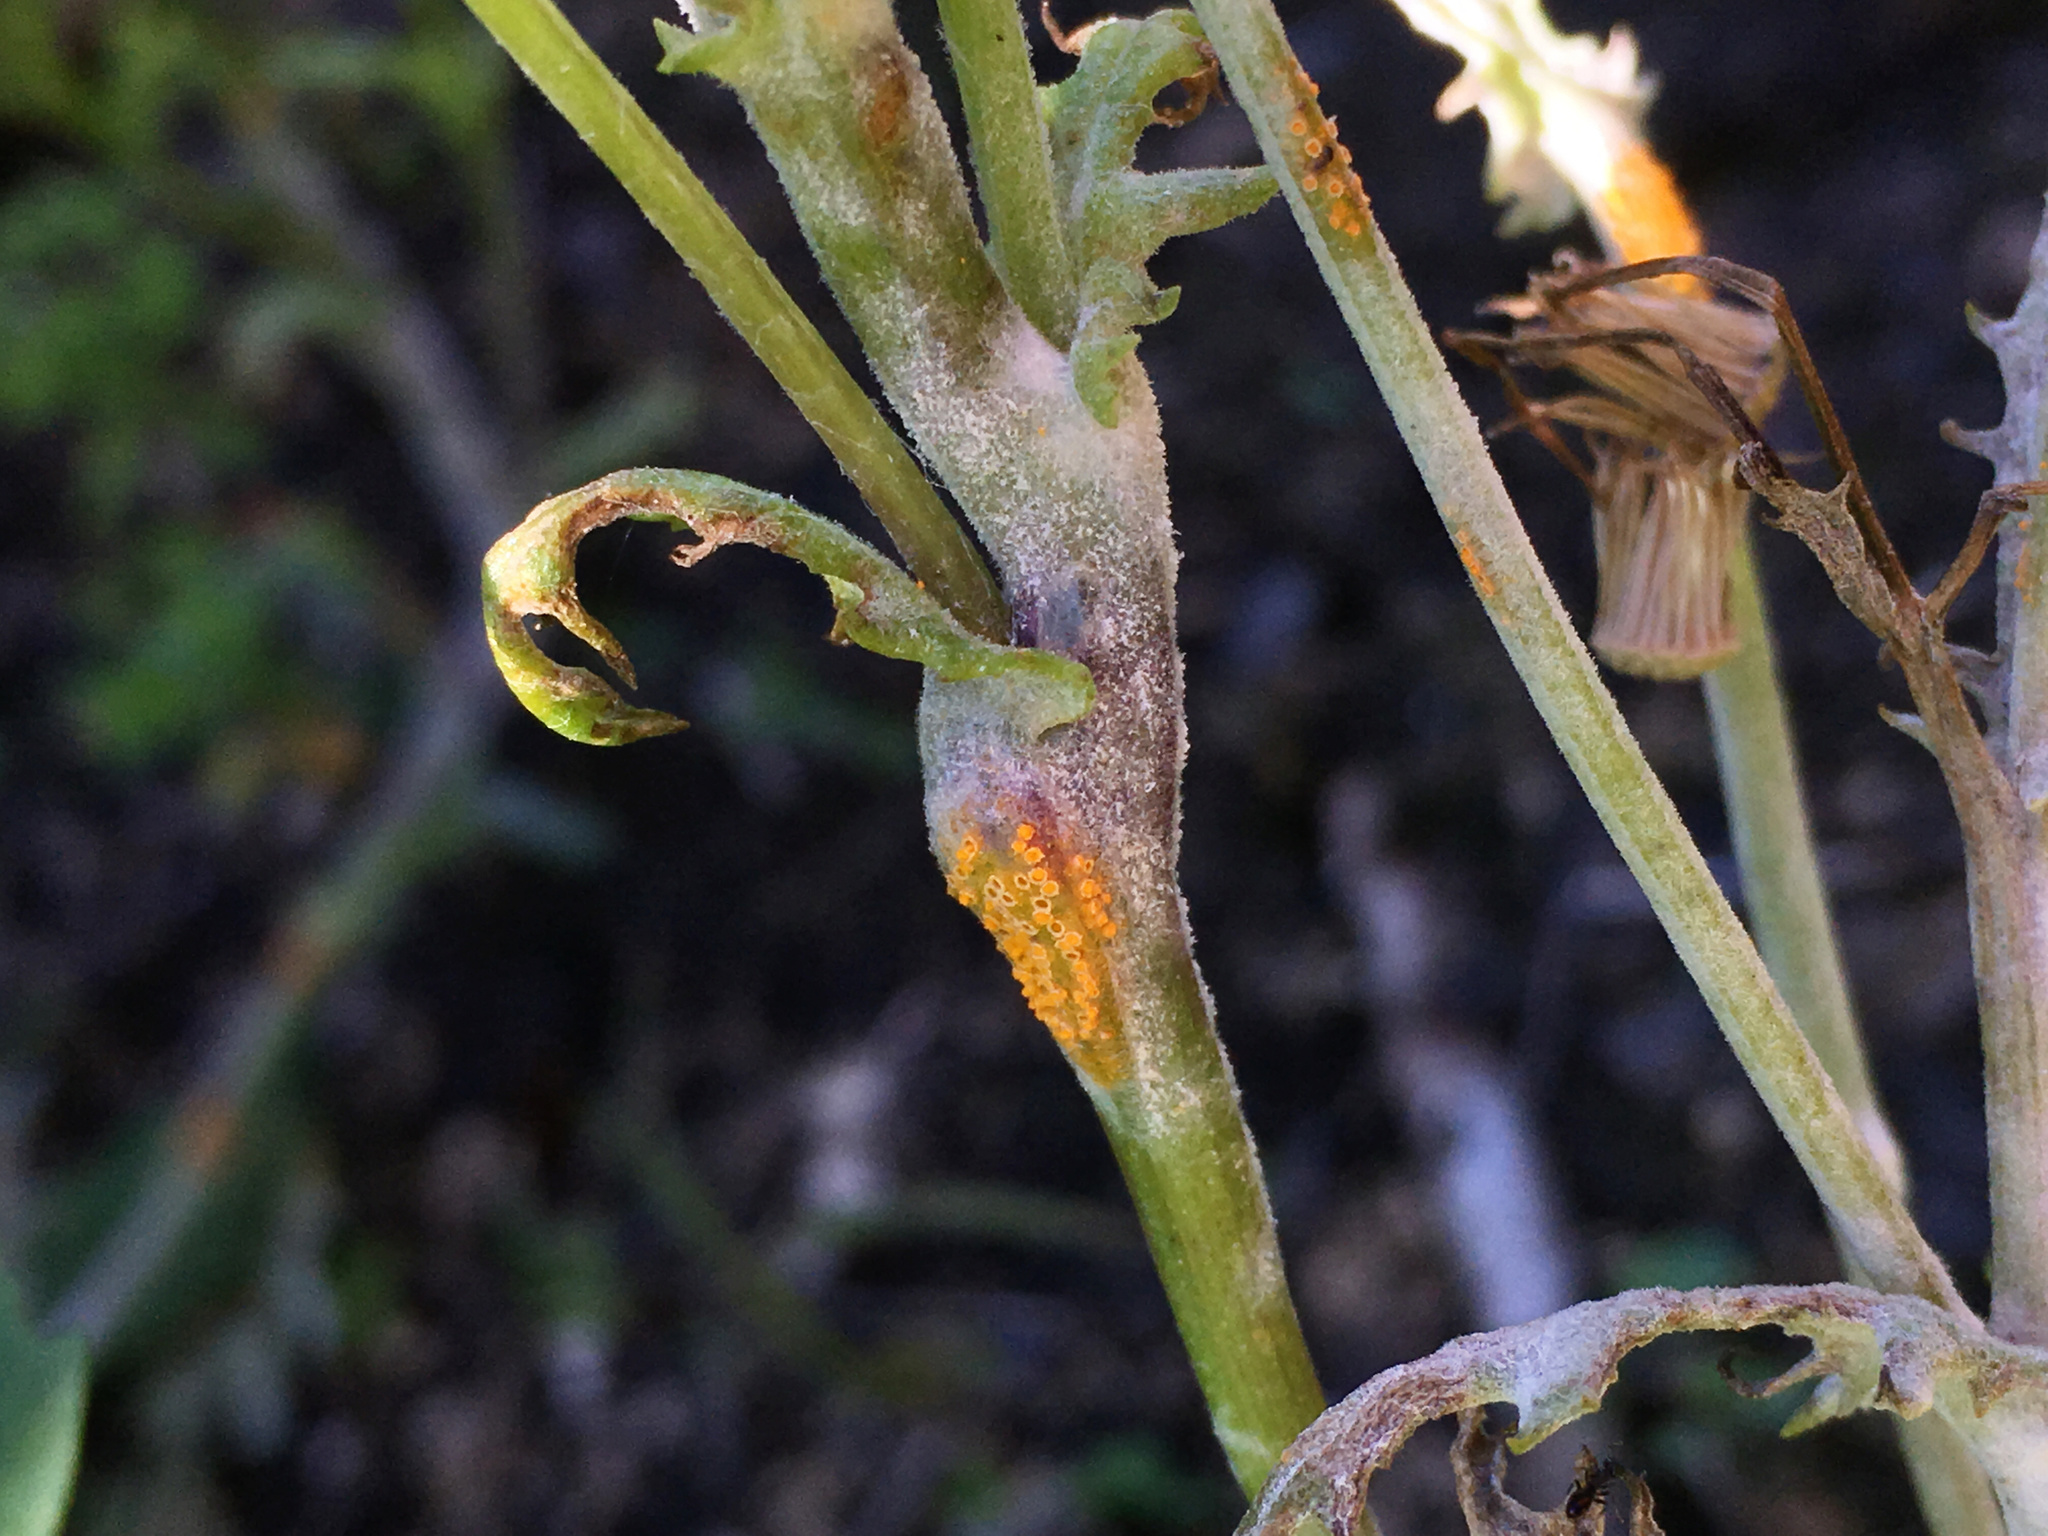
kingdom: Fungi
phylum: Basidiomycota
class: Pucciniomycetes
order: Pucciniales
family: Pucciniaceae
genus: Puccinia
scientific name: Puccinia lagenophorae
